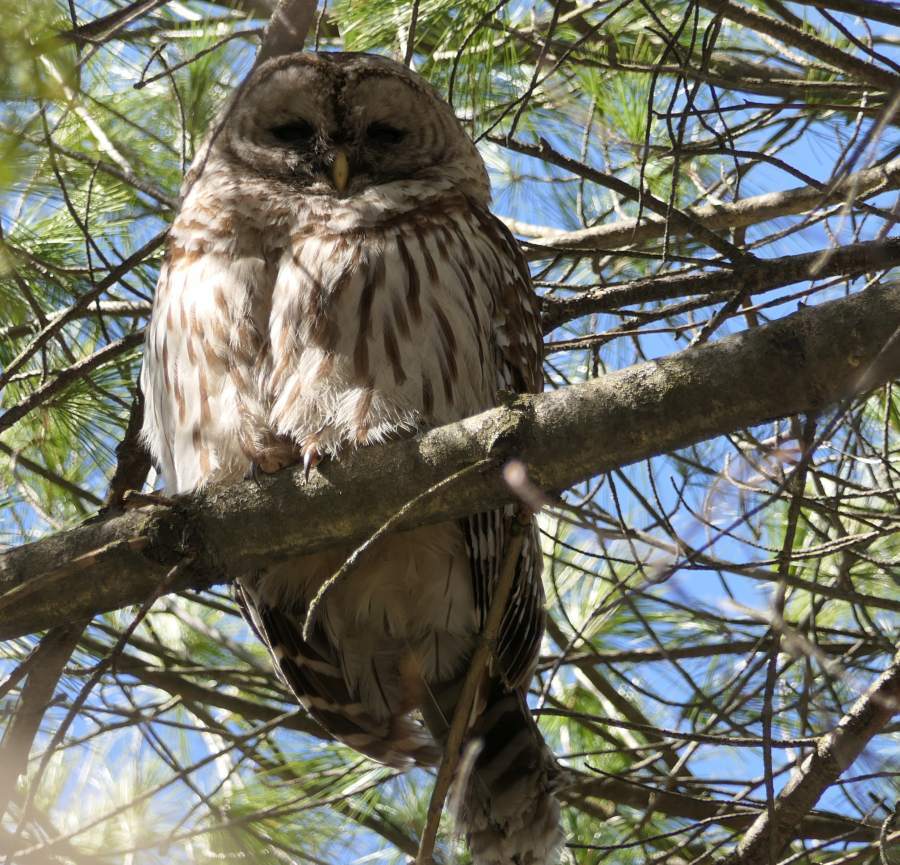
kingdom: Animalia
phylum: Chordata
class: Aves
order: Strigiformes
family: Strigidae
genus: Strix
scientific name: Strix varia
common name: Barred owl
